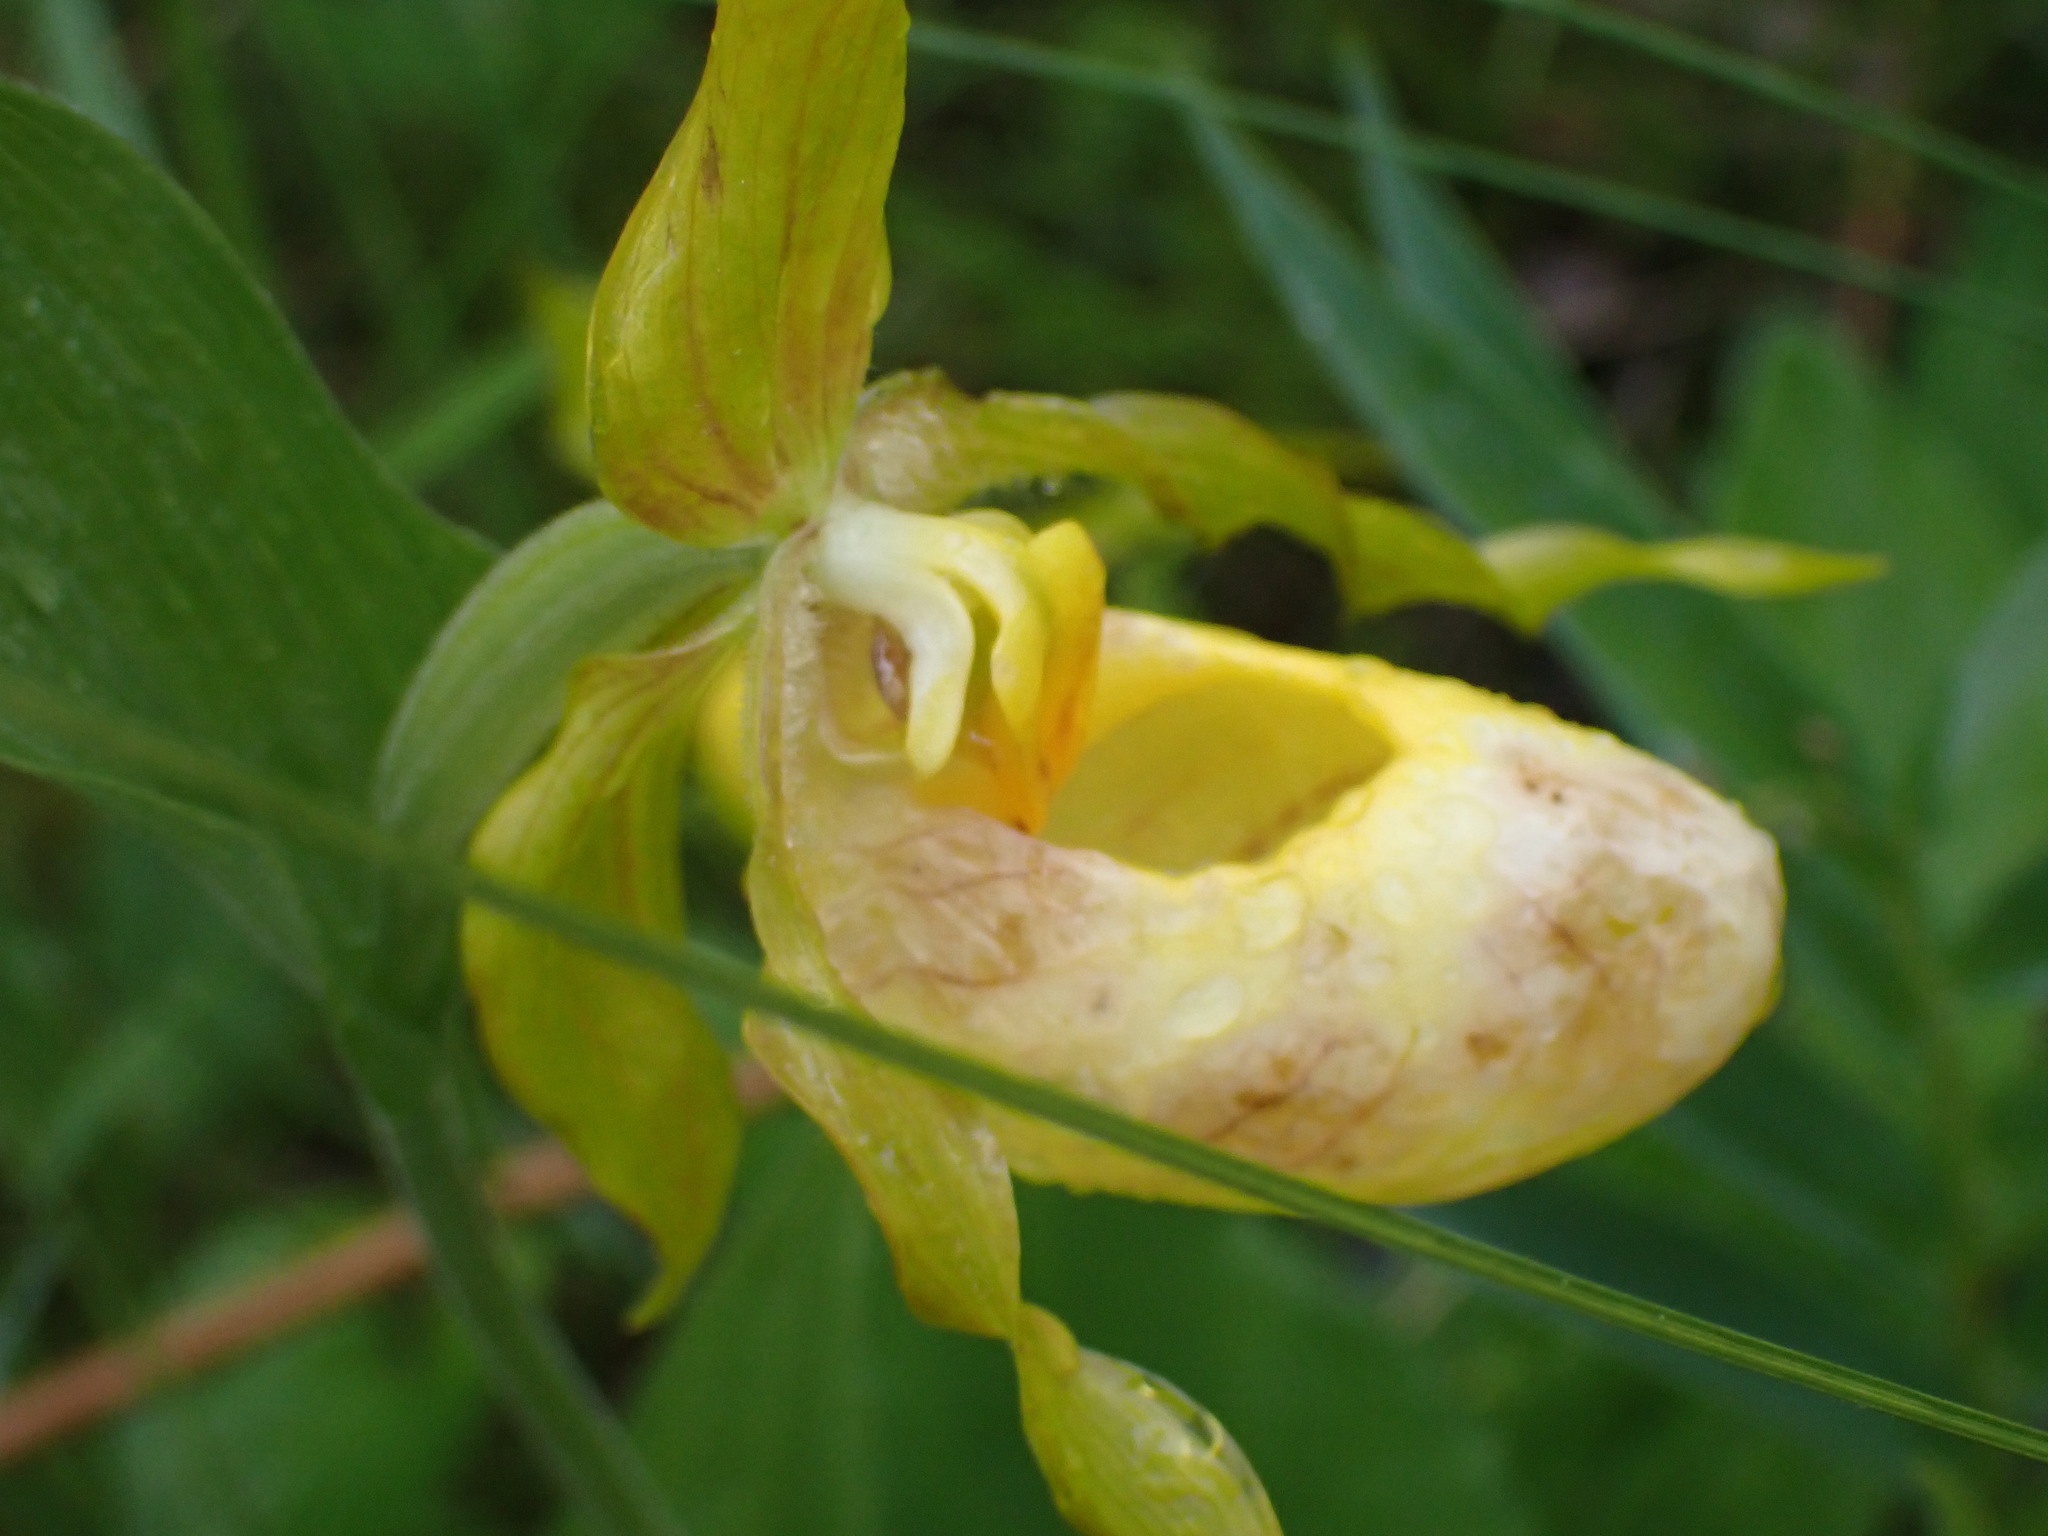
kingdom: Plantae
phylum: Tracheophyta
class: Liliopsida
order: Asparagales
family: Orchidaceae
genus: Cypripedium
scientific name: Cypripedium parviflorum
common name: American yellow lady's-slipper
